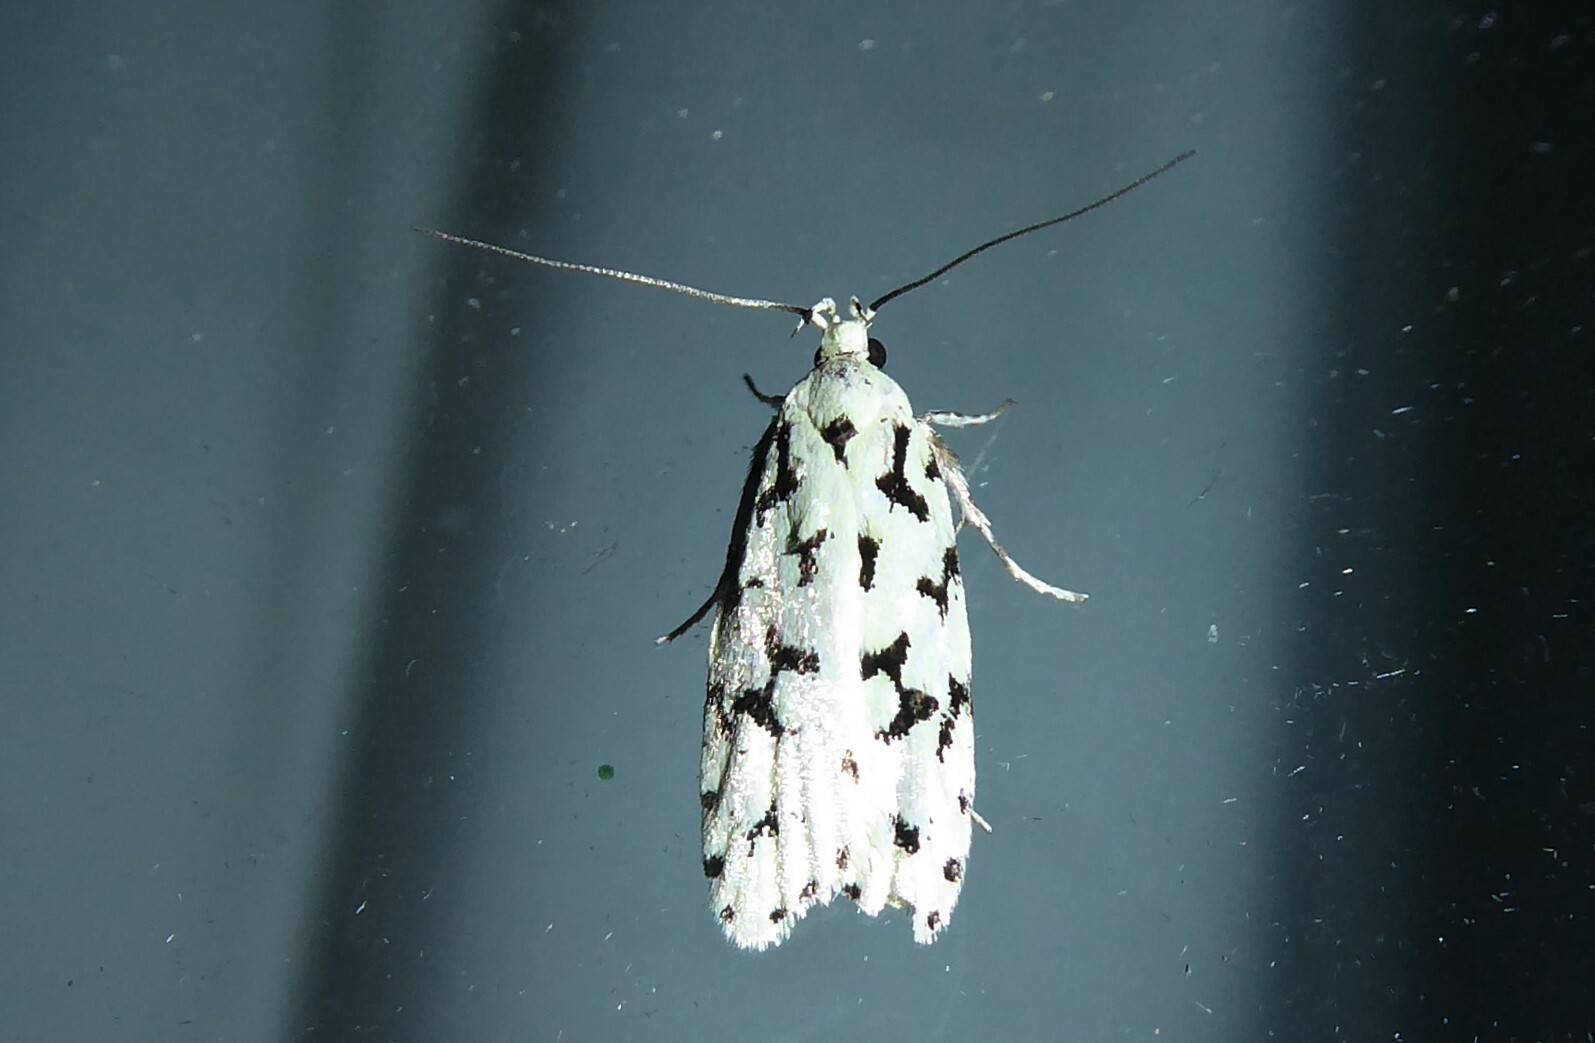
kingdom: Animalia
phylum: Arthropoda
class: Insecta
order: Lepidoptera
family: Oecophoridae
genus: Izatha
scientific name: Izatha huttoni
